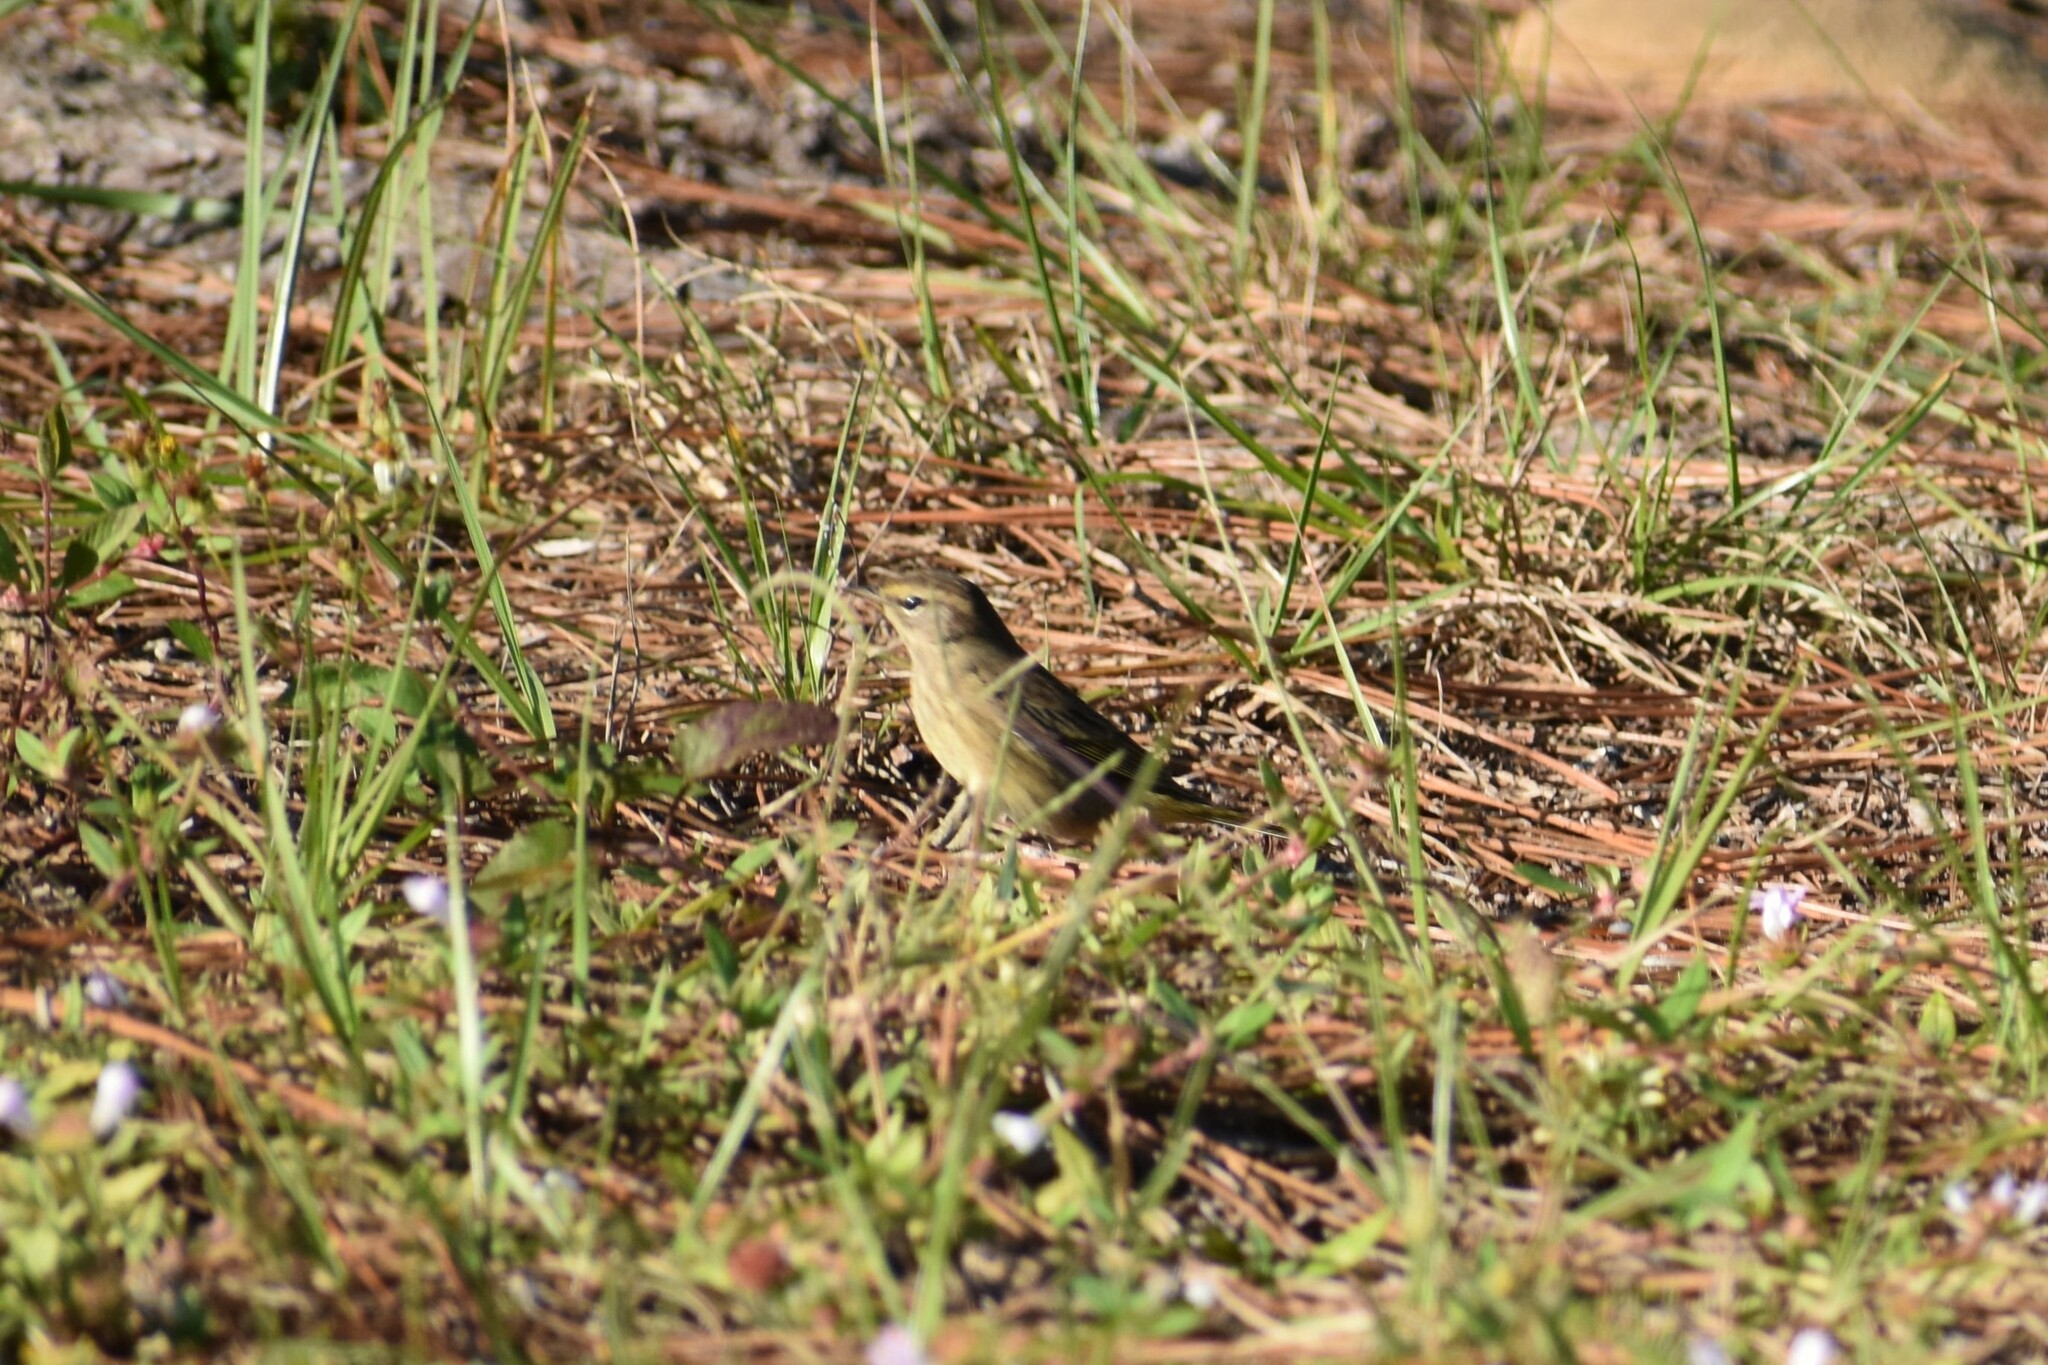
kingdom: Animalia
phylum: Chordata
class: Aves
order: Passeriformes
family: Parulidae
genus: Setophaga
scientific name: Setophaga palmarum
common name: Palm warbler
